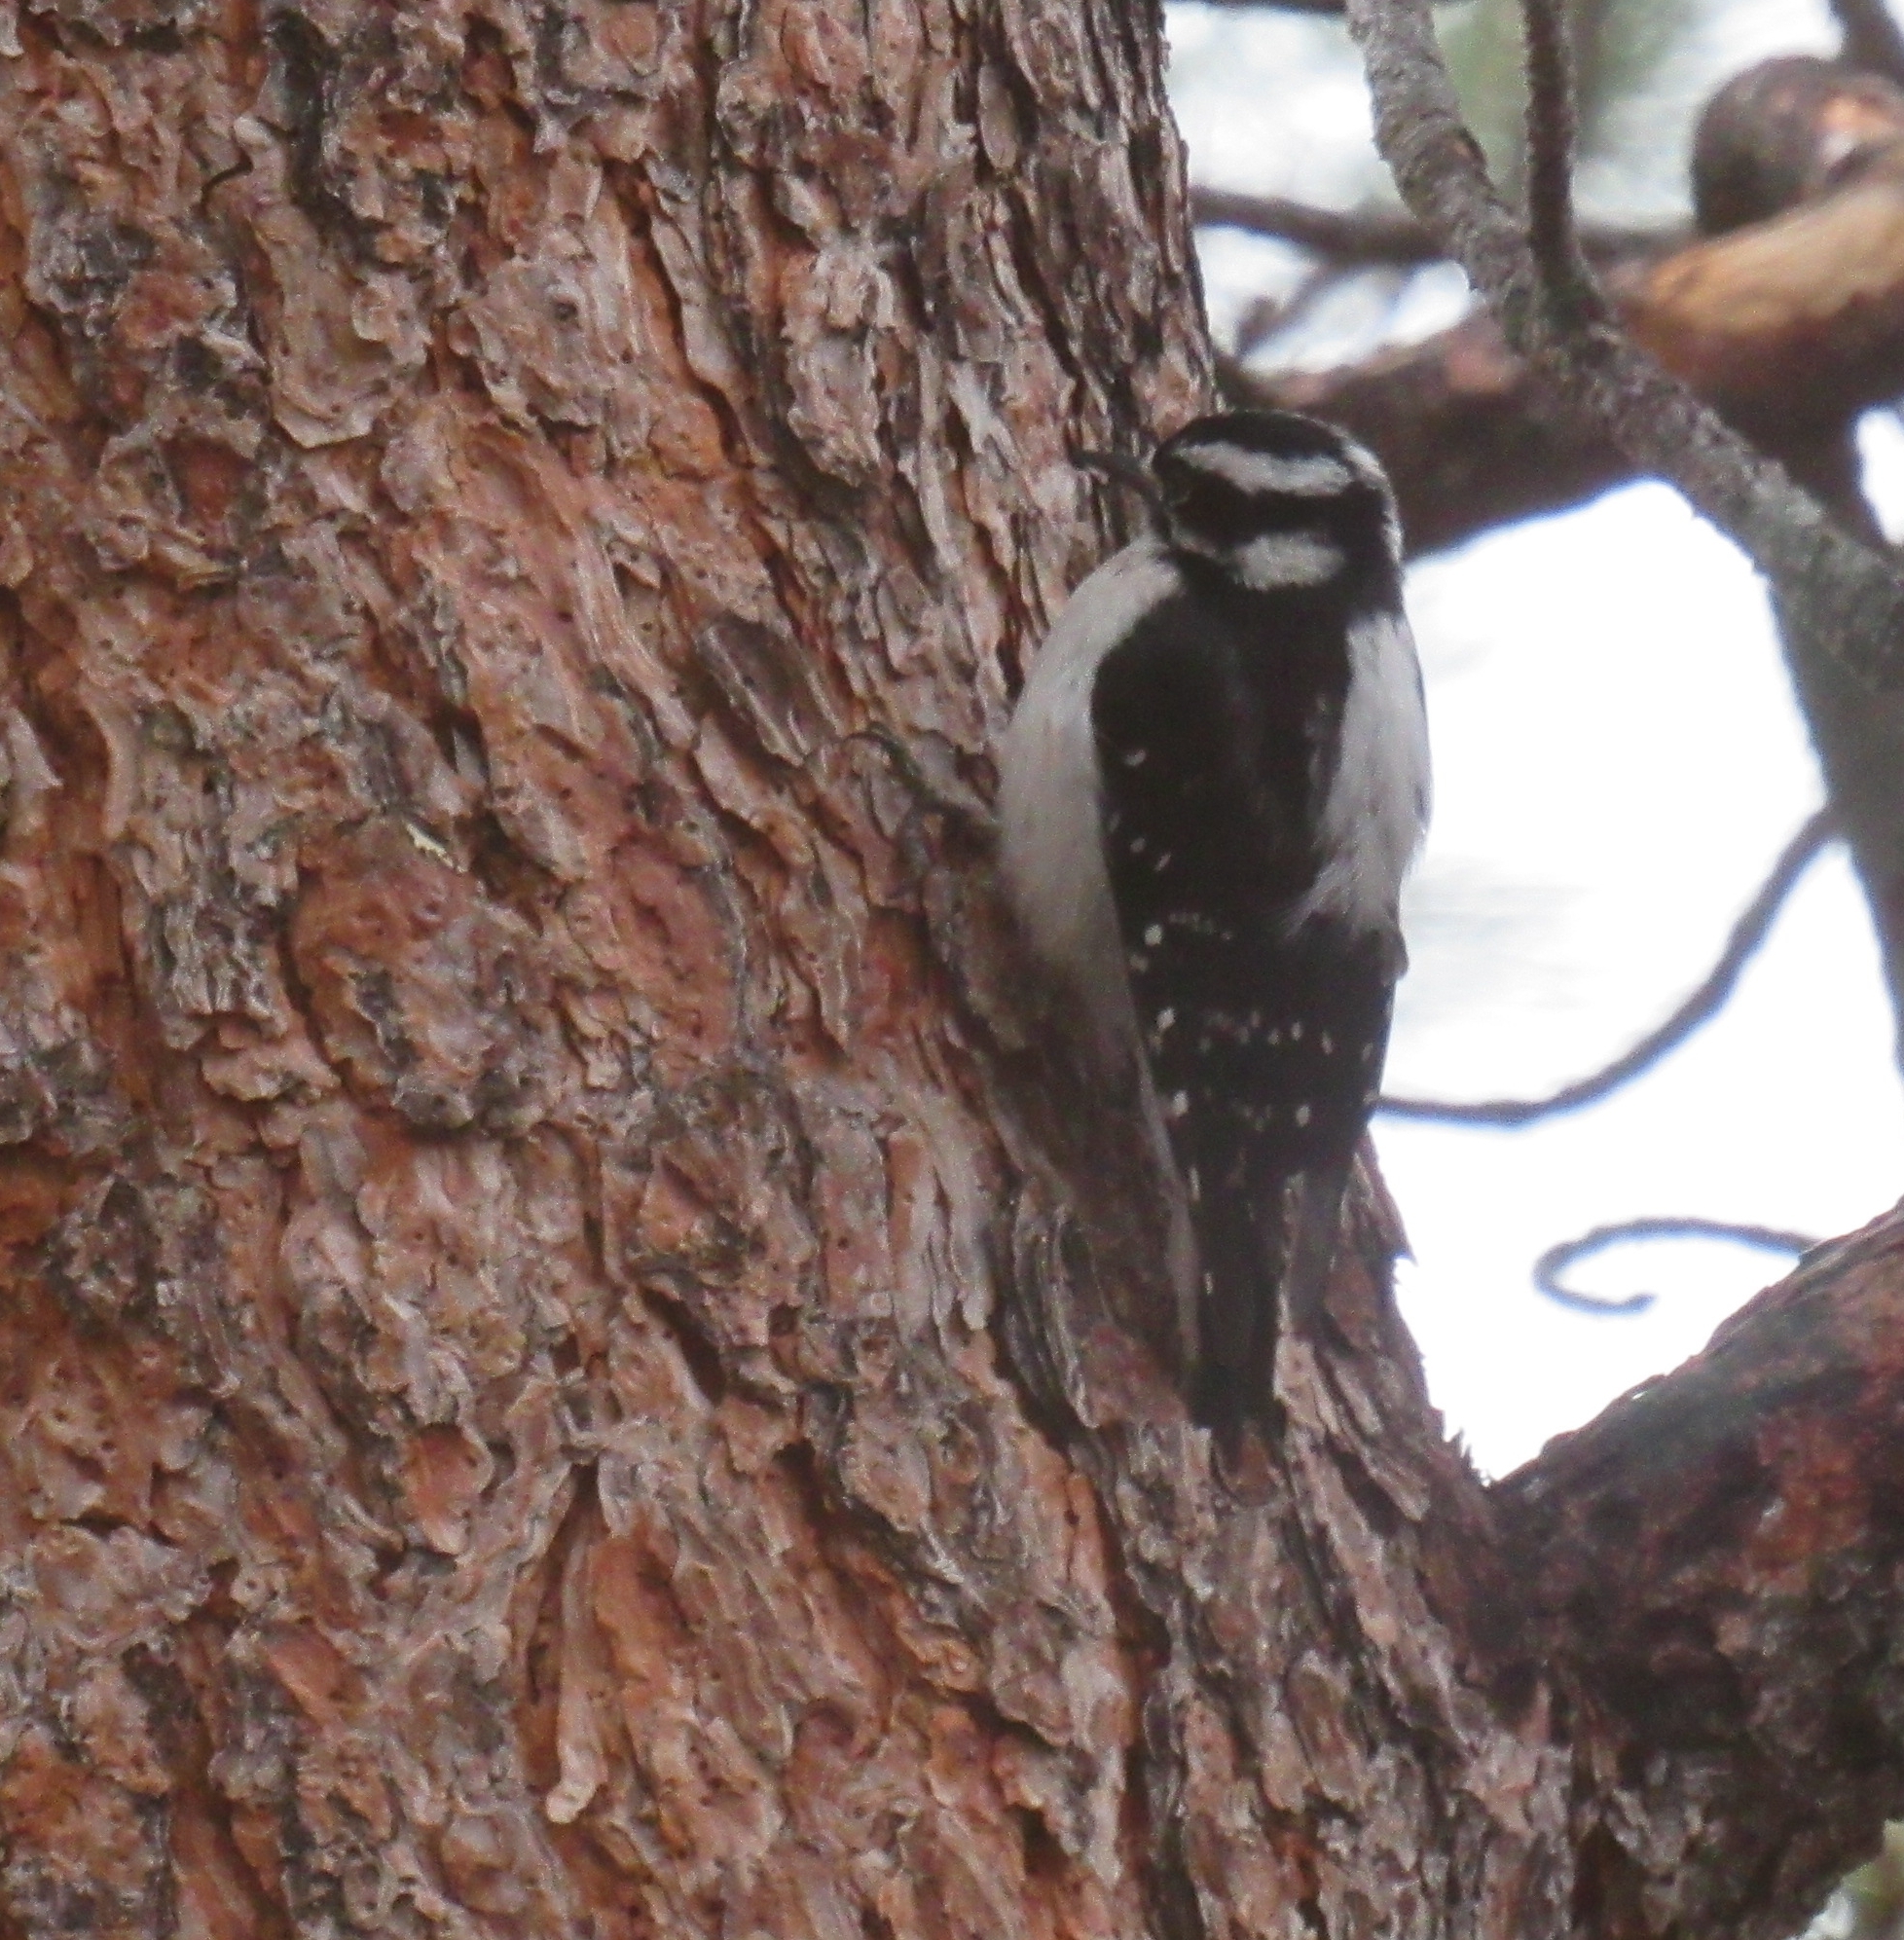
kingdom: Animalia
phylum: Chordata
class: Aves
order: Piciformes
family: Picidae
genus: Dryobates
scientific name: Dryobates pubescens
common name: Downy woodpecker
